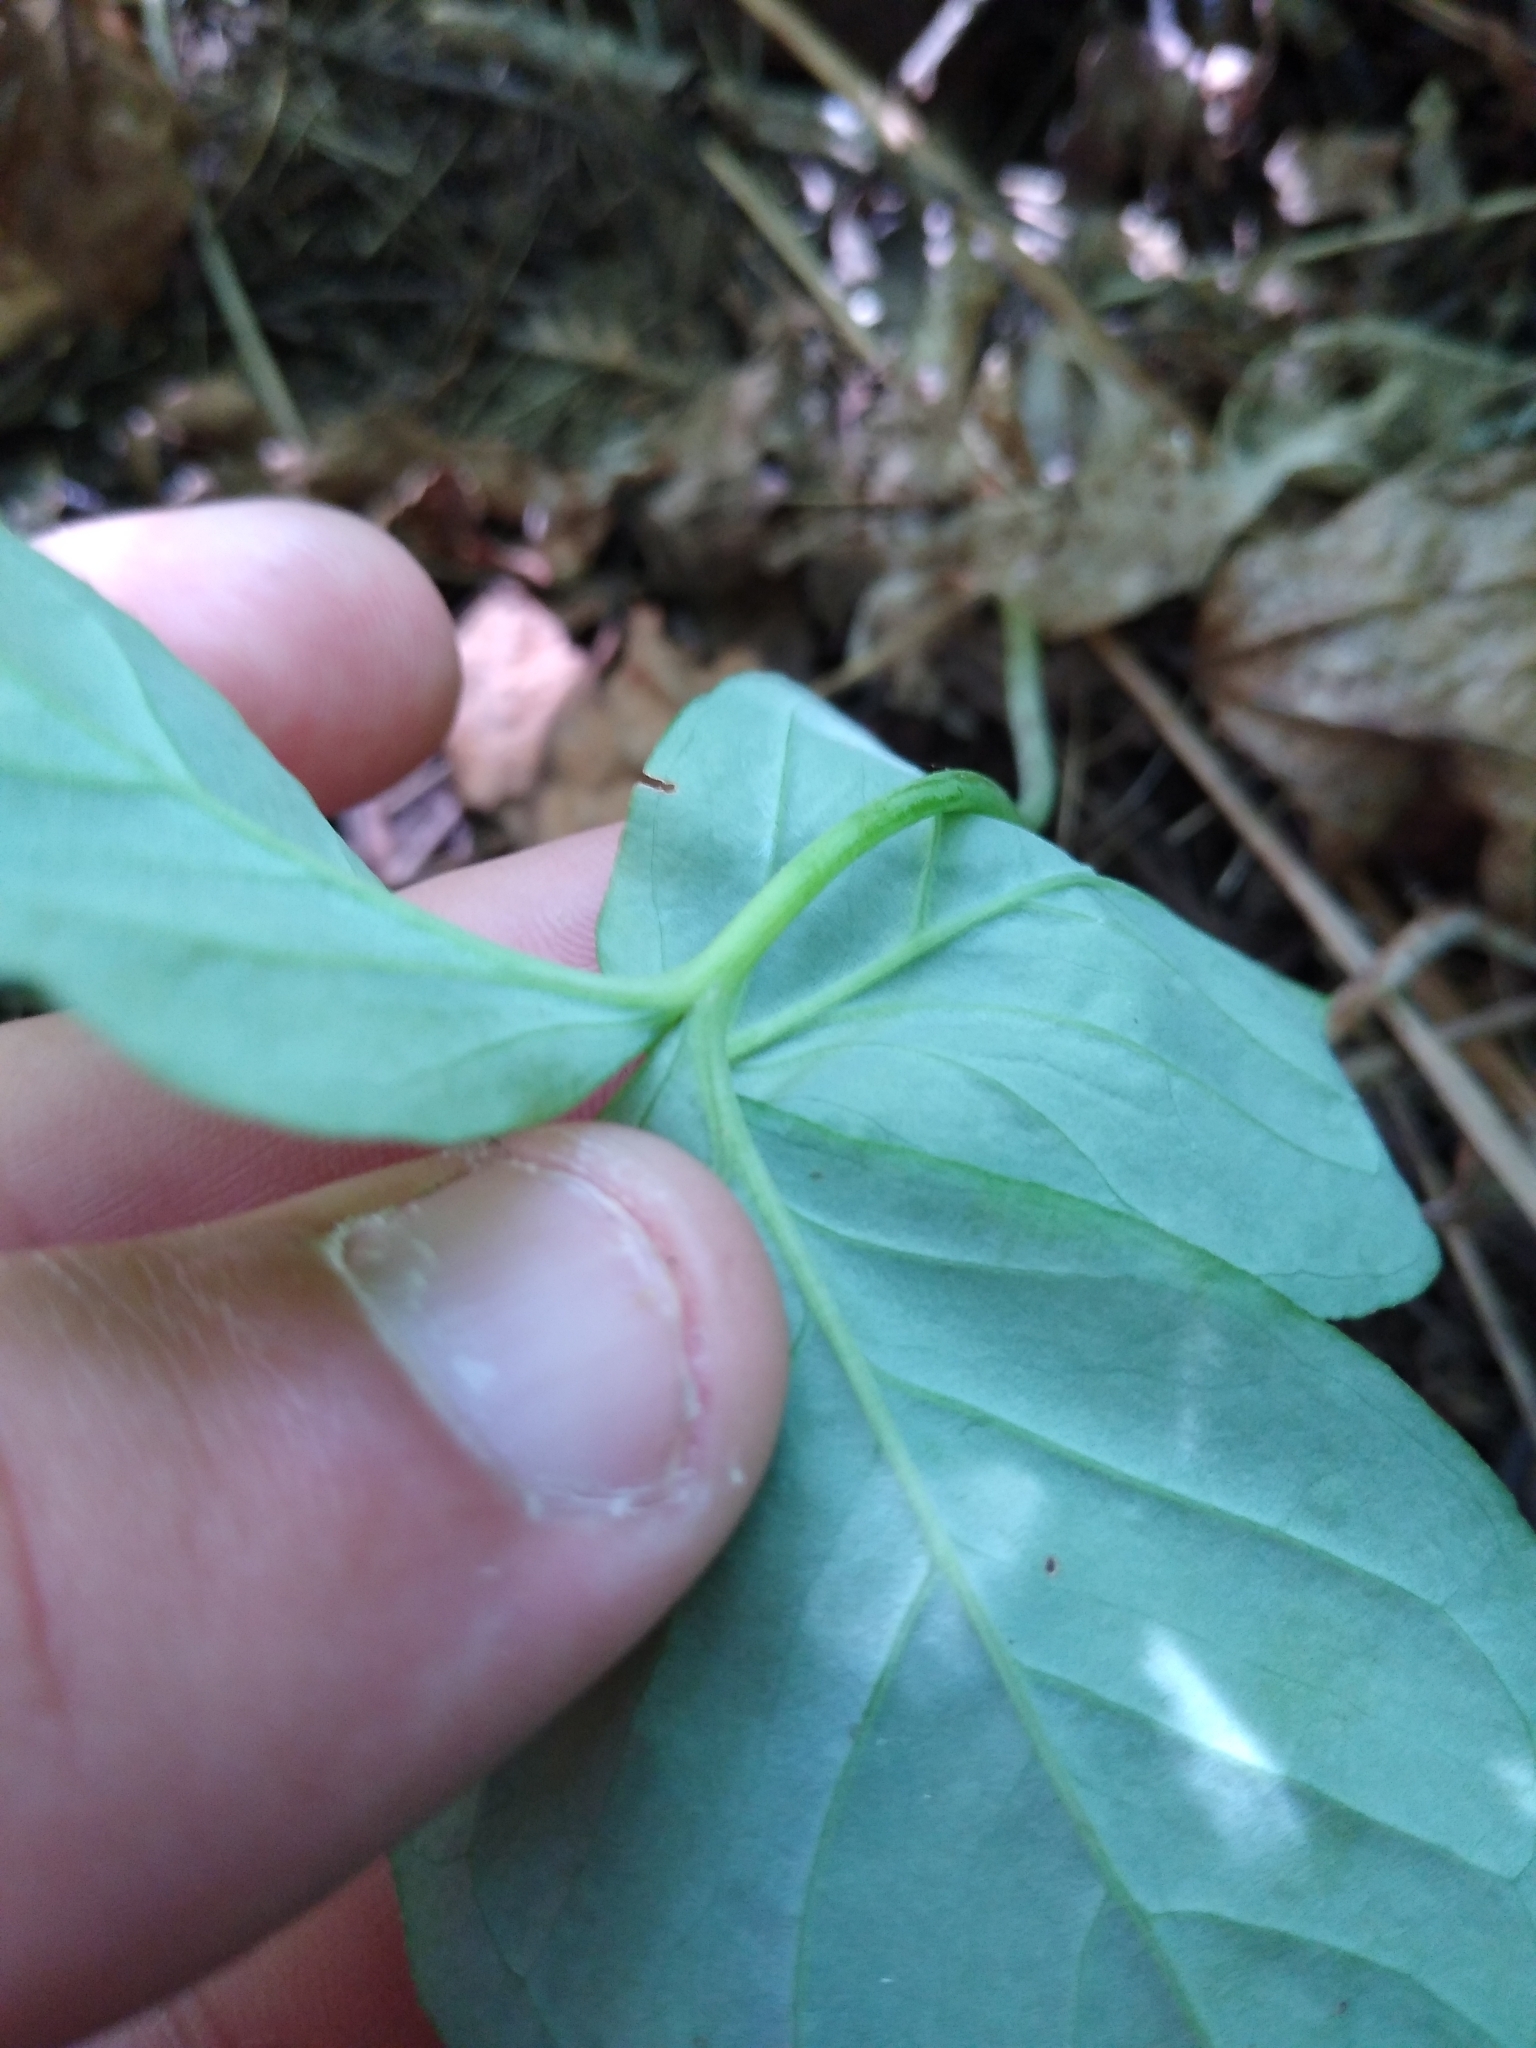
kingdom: Plantae
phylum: Tracheophyta
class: Liliopsida
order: Alismatales
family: Araceae
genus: Arisaema
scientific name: Arisaema triphyllum
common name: Jack-in-the-pulpit
